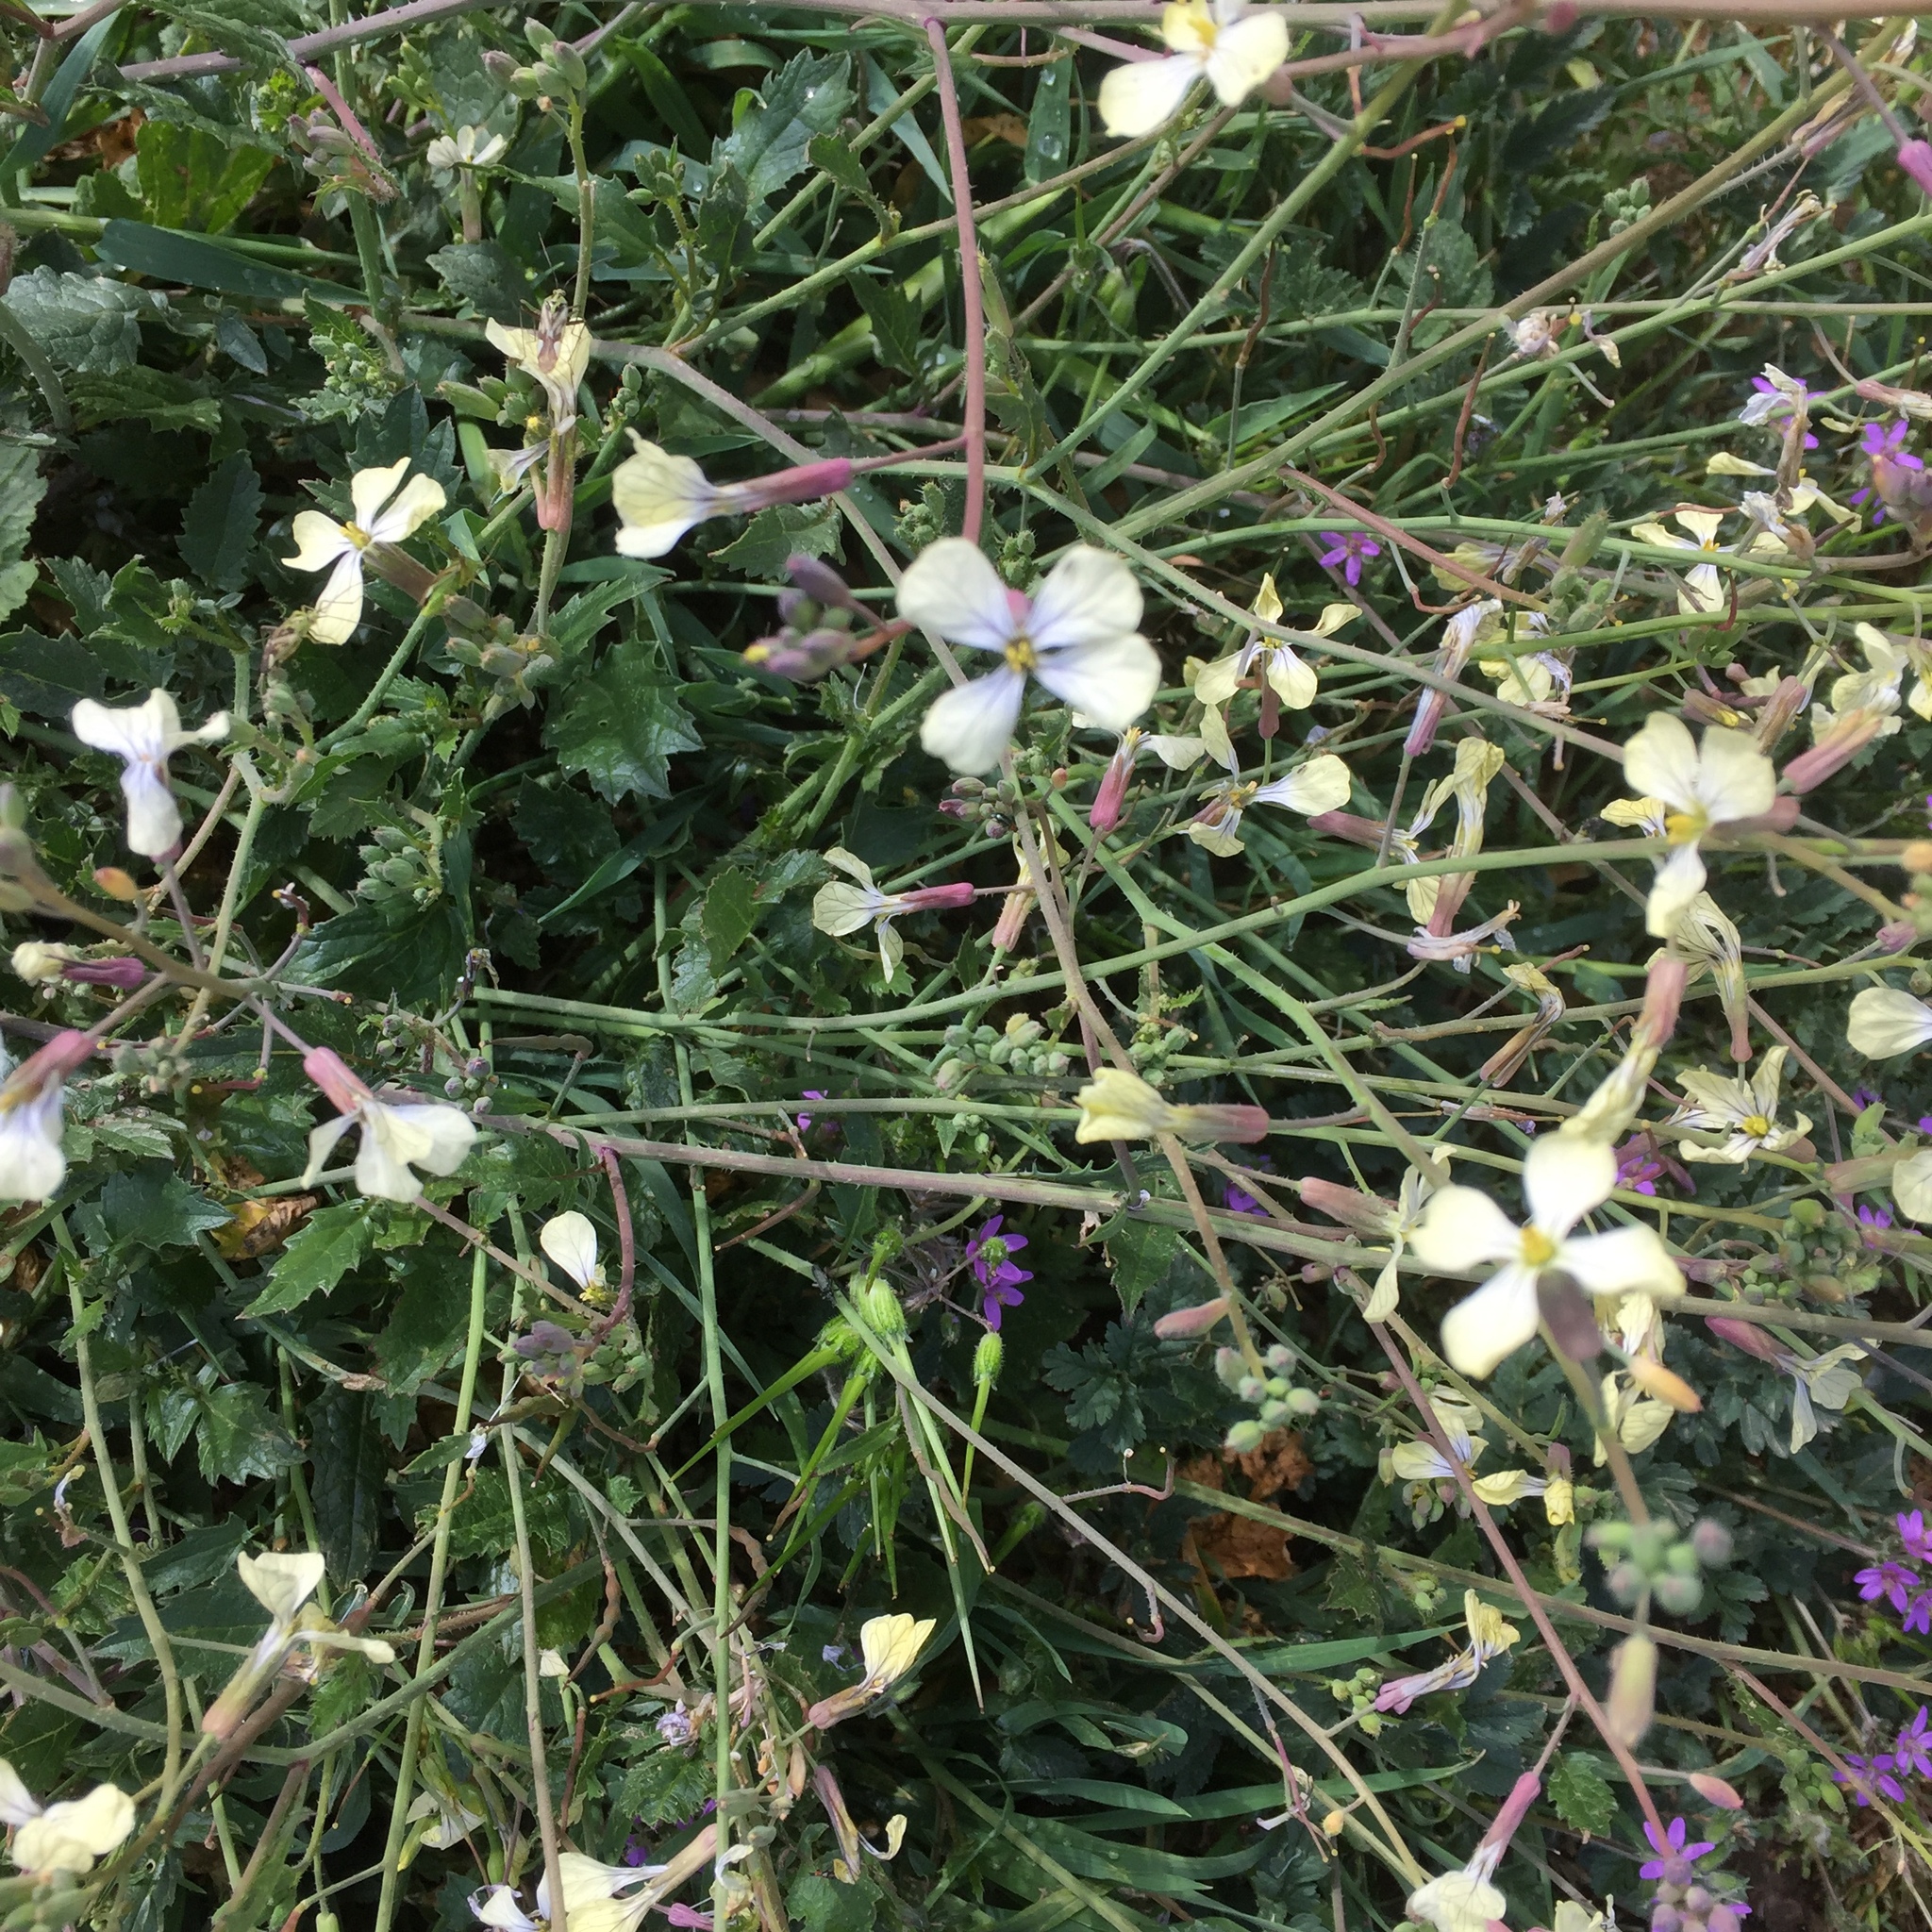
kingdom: Plantae
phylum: Tracheophyta
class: Magnoliopsida
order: Brassicales
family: Brassicaceae
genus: Raphanus
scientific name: Raphanus raphanistrum
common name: Wild radish
